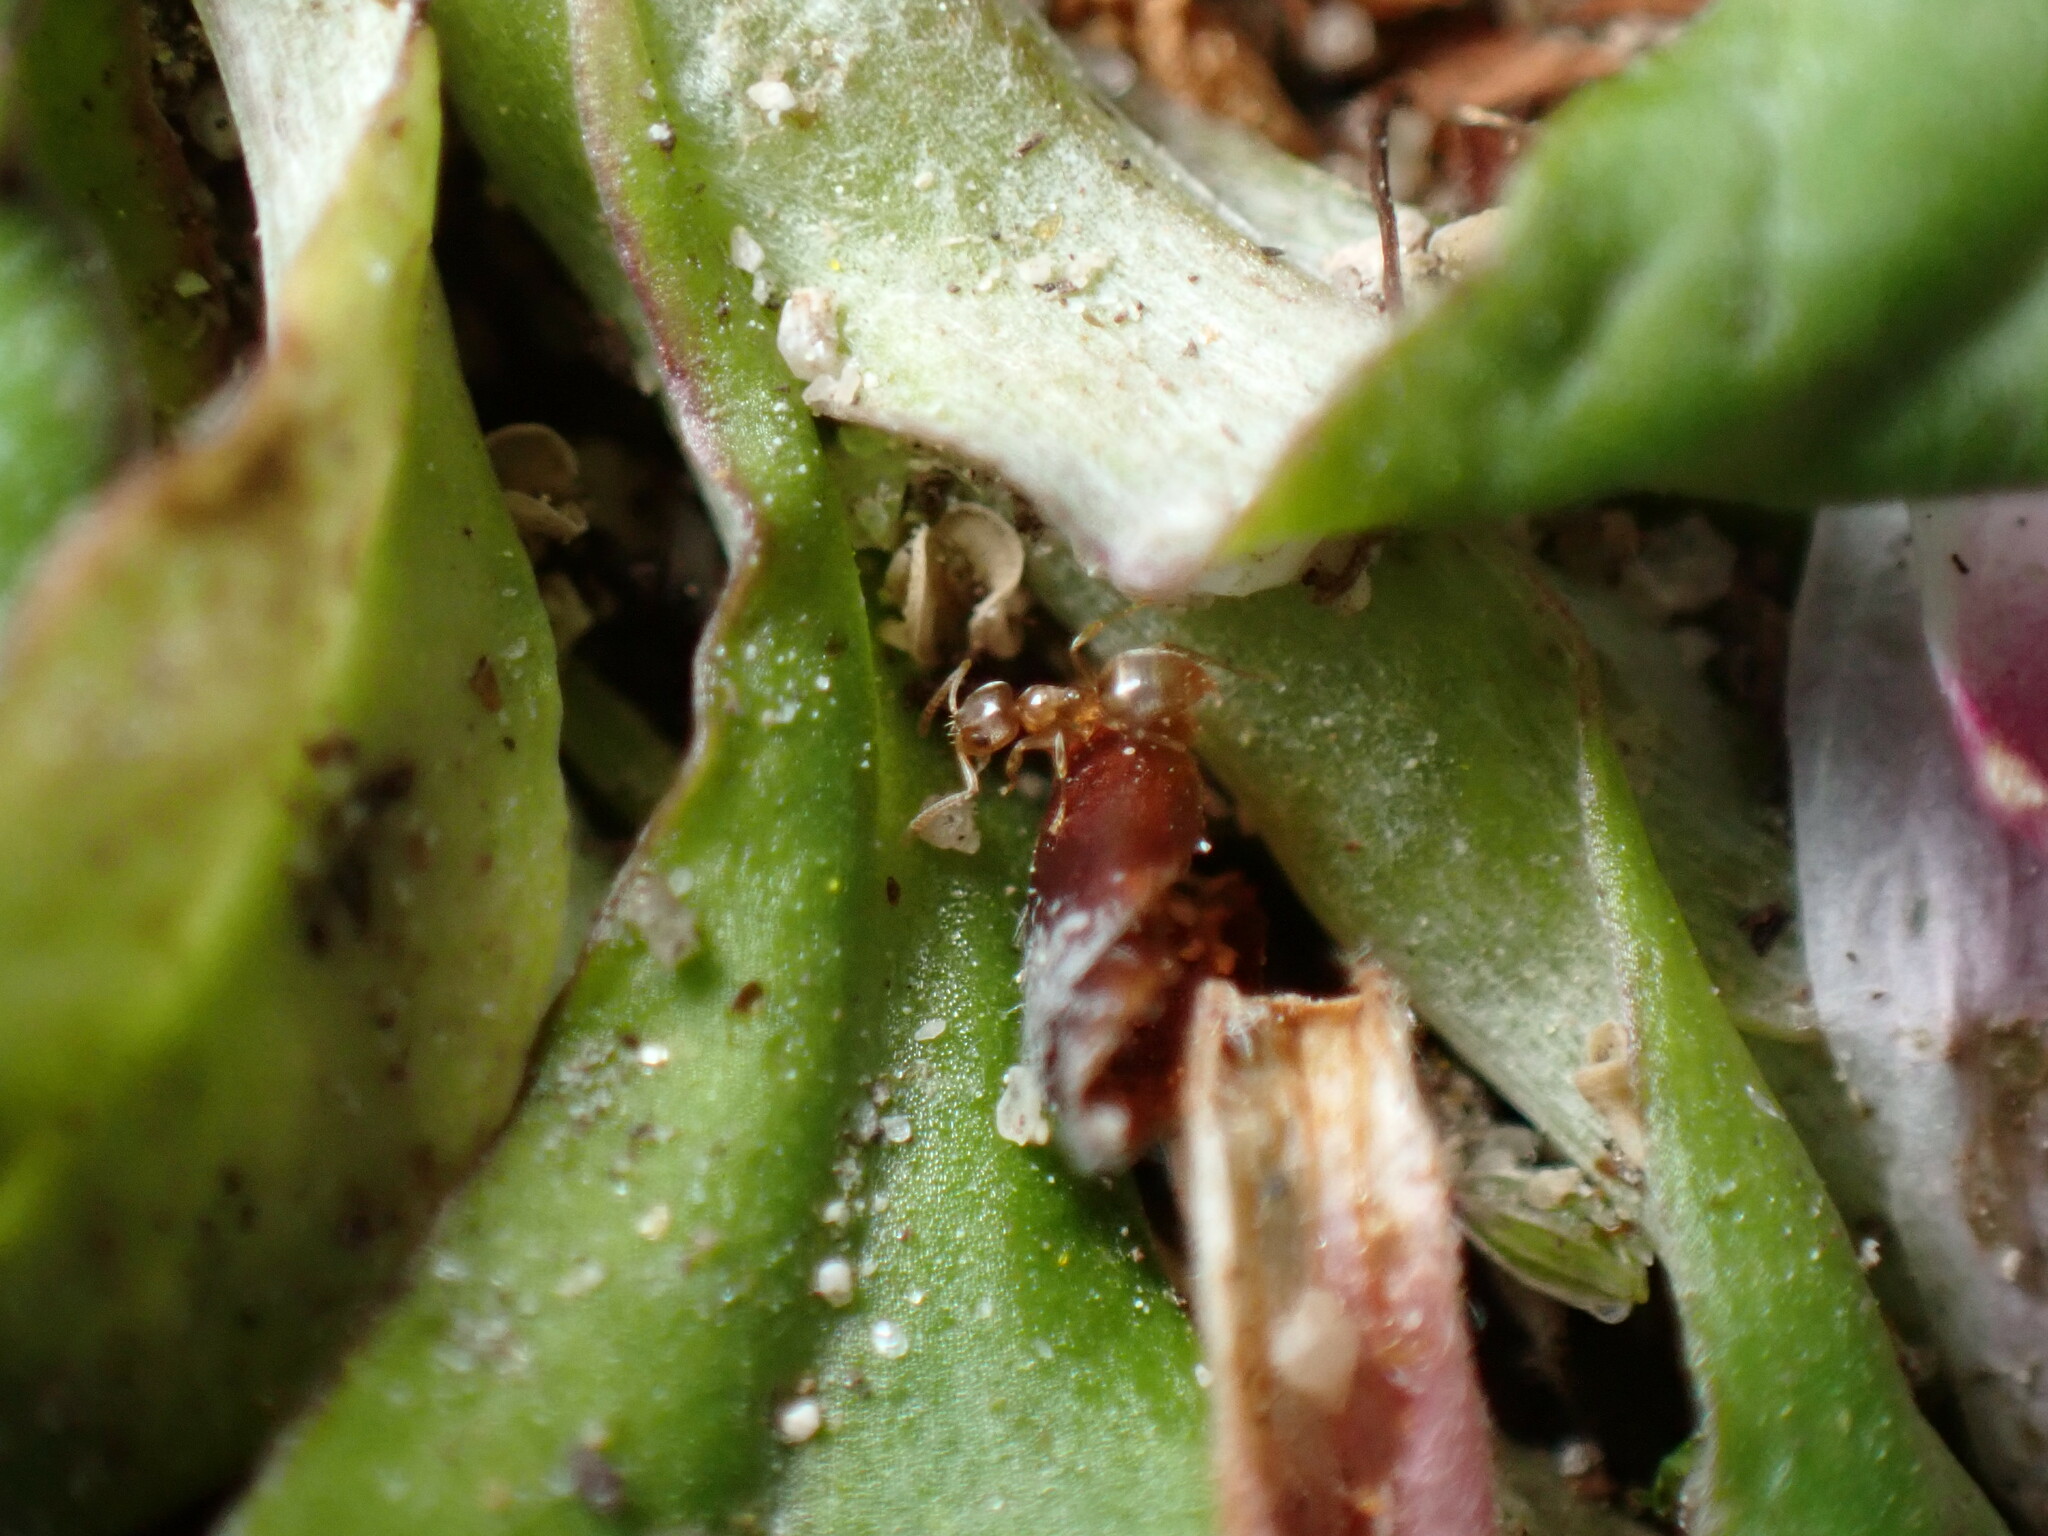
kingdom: Animalia
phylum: Arthropoda
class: Insecta
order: Hymenoptera
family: Formicidae
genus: Paraparatrechina
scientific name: Paraparatrechina
